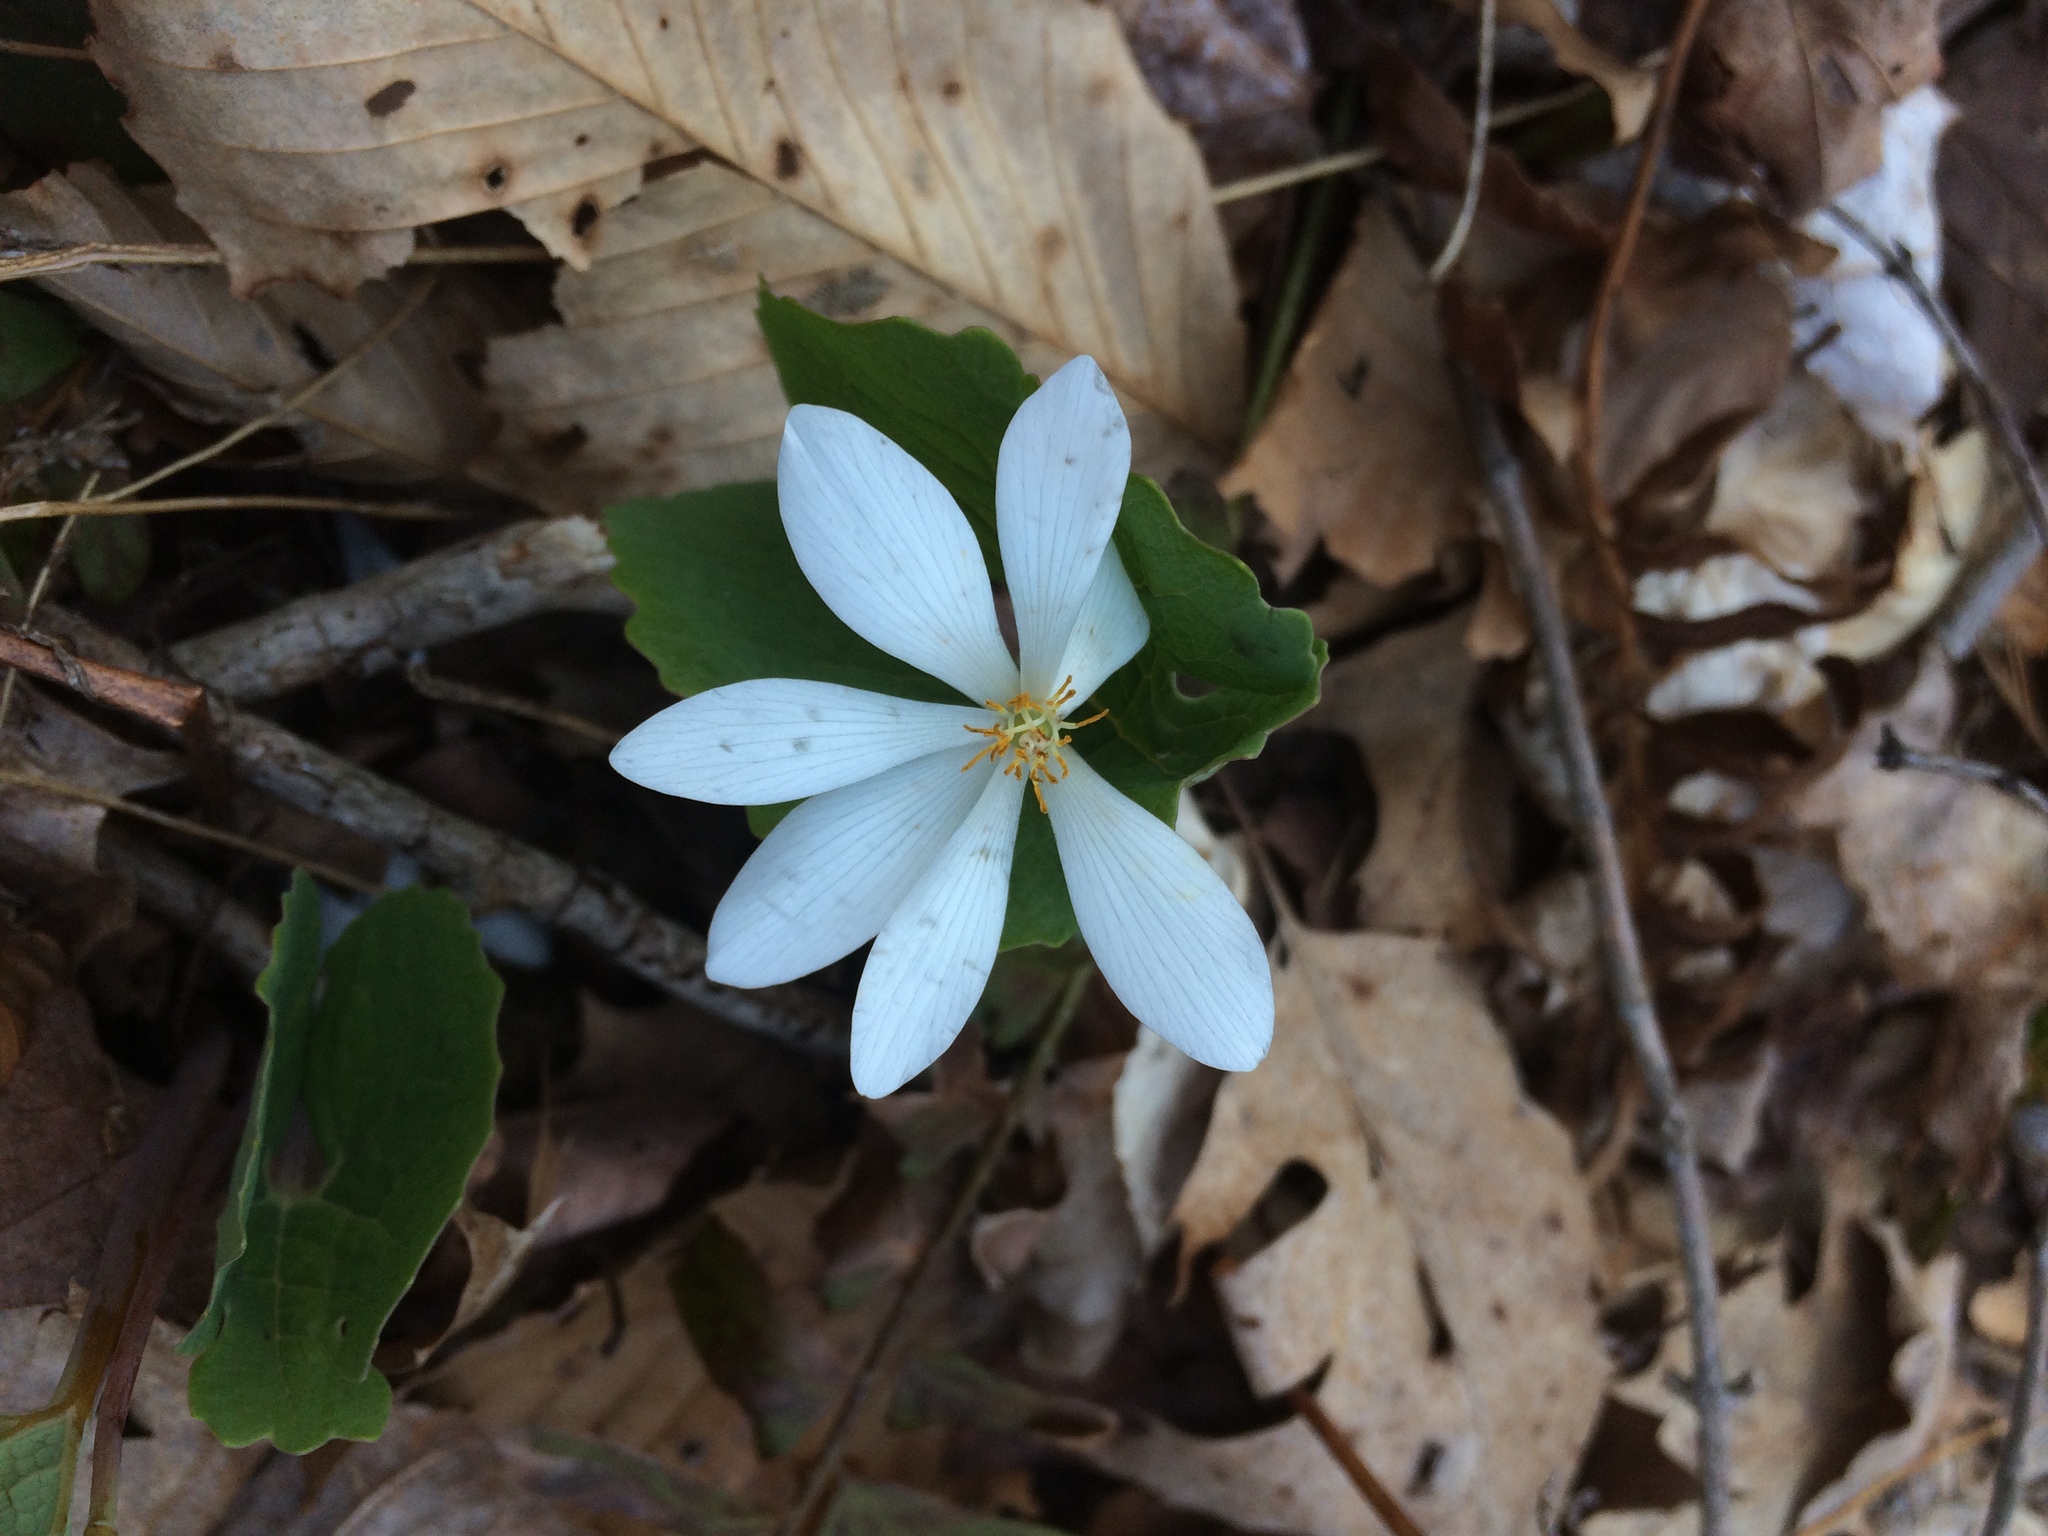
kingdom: Plantae
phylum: Tracheophyta
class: Magnoliopsida
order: Ranunculales
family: Papaveraceae
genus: Sanguinaria
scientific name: Sanguinaria canadensis
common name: Bloodroot
